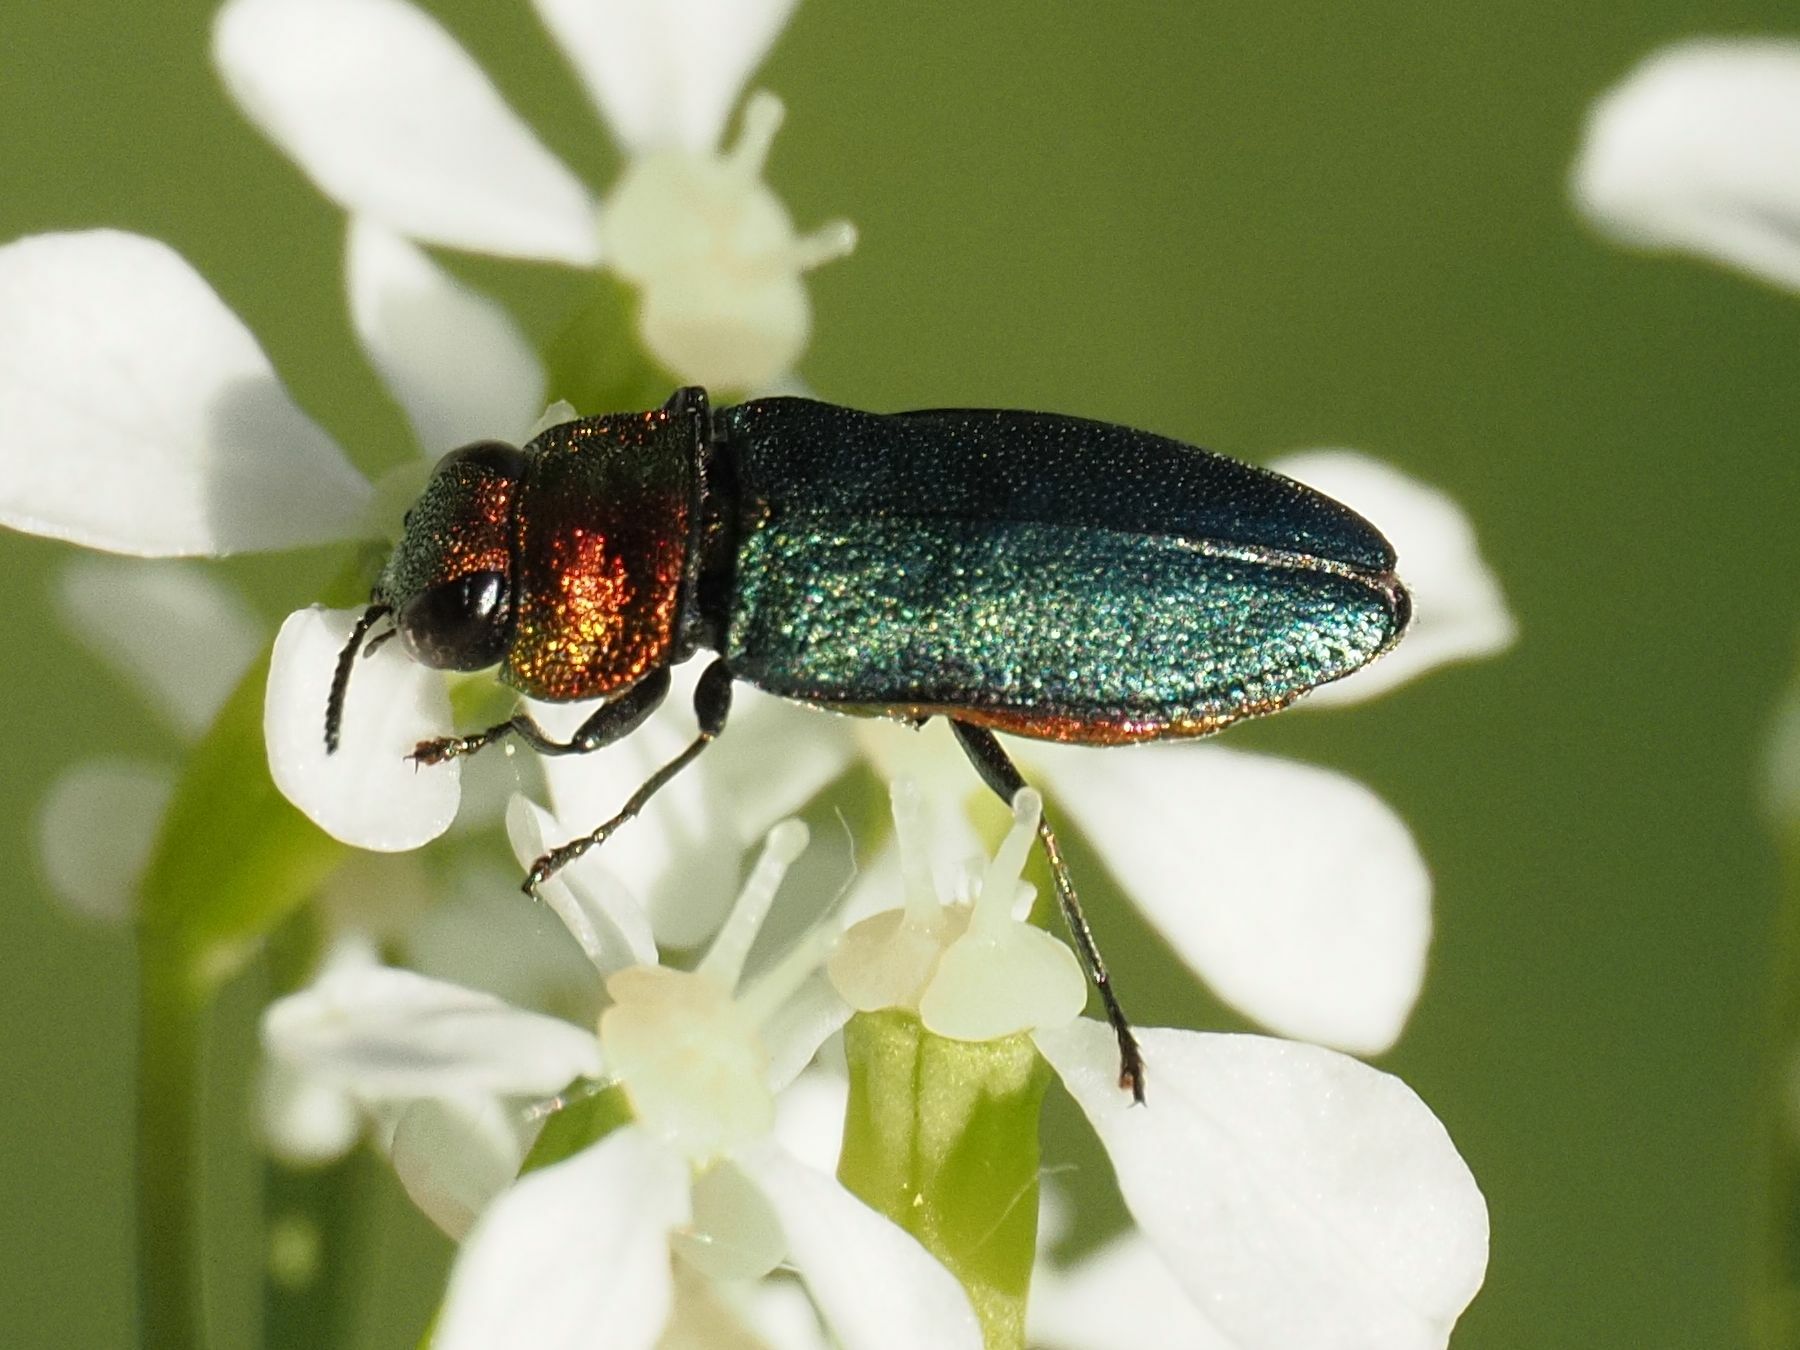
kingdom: Animalia
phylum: Arthropoda
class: Insecta
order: Coleoptera
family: Buprestidae
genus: Anthaxia
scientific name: Anthaxia nitidula
